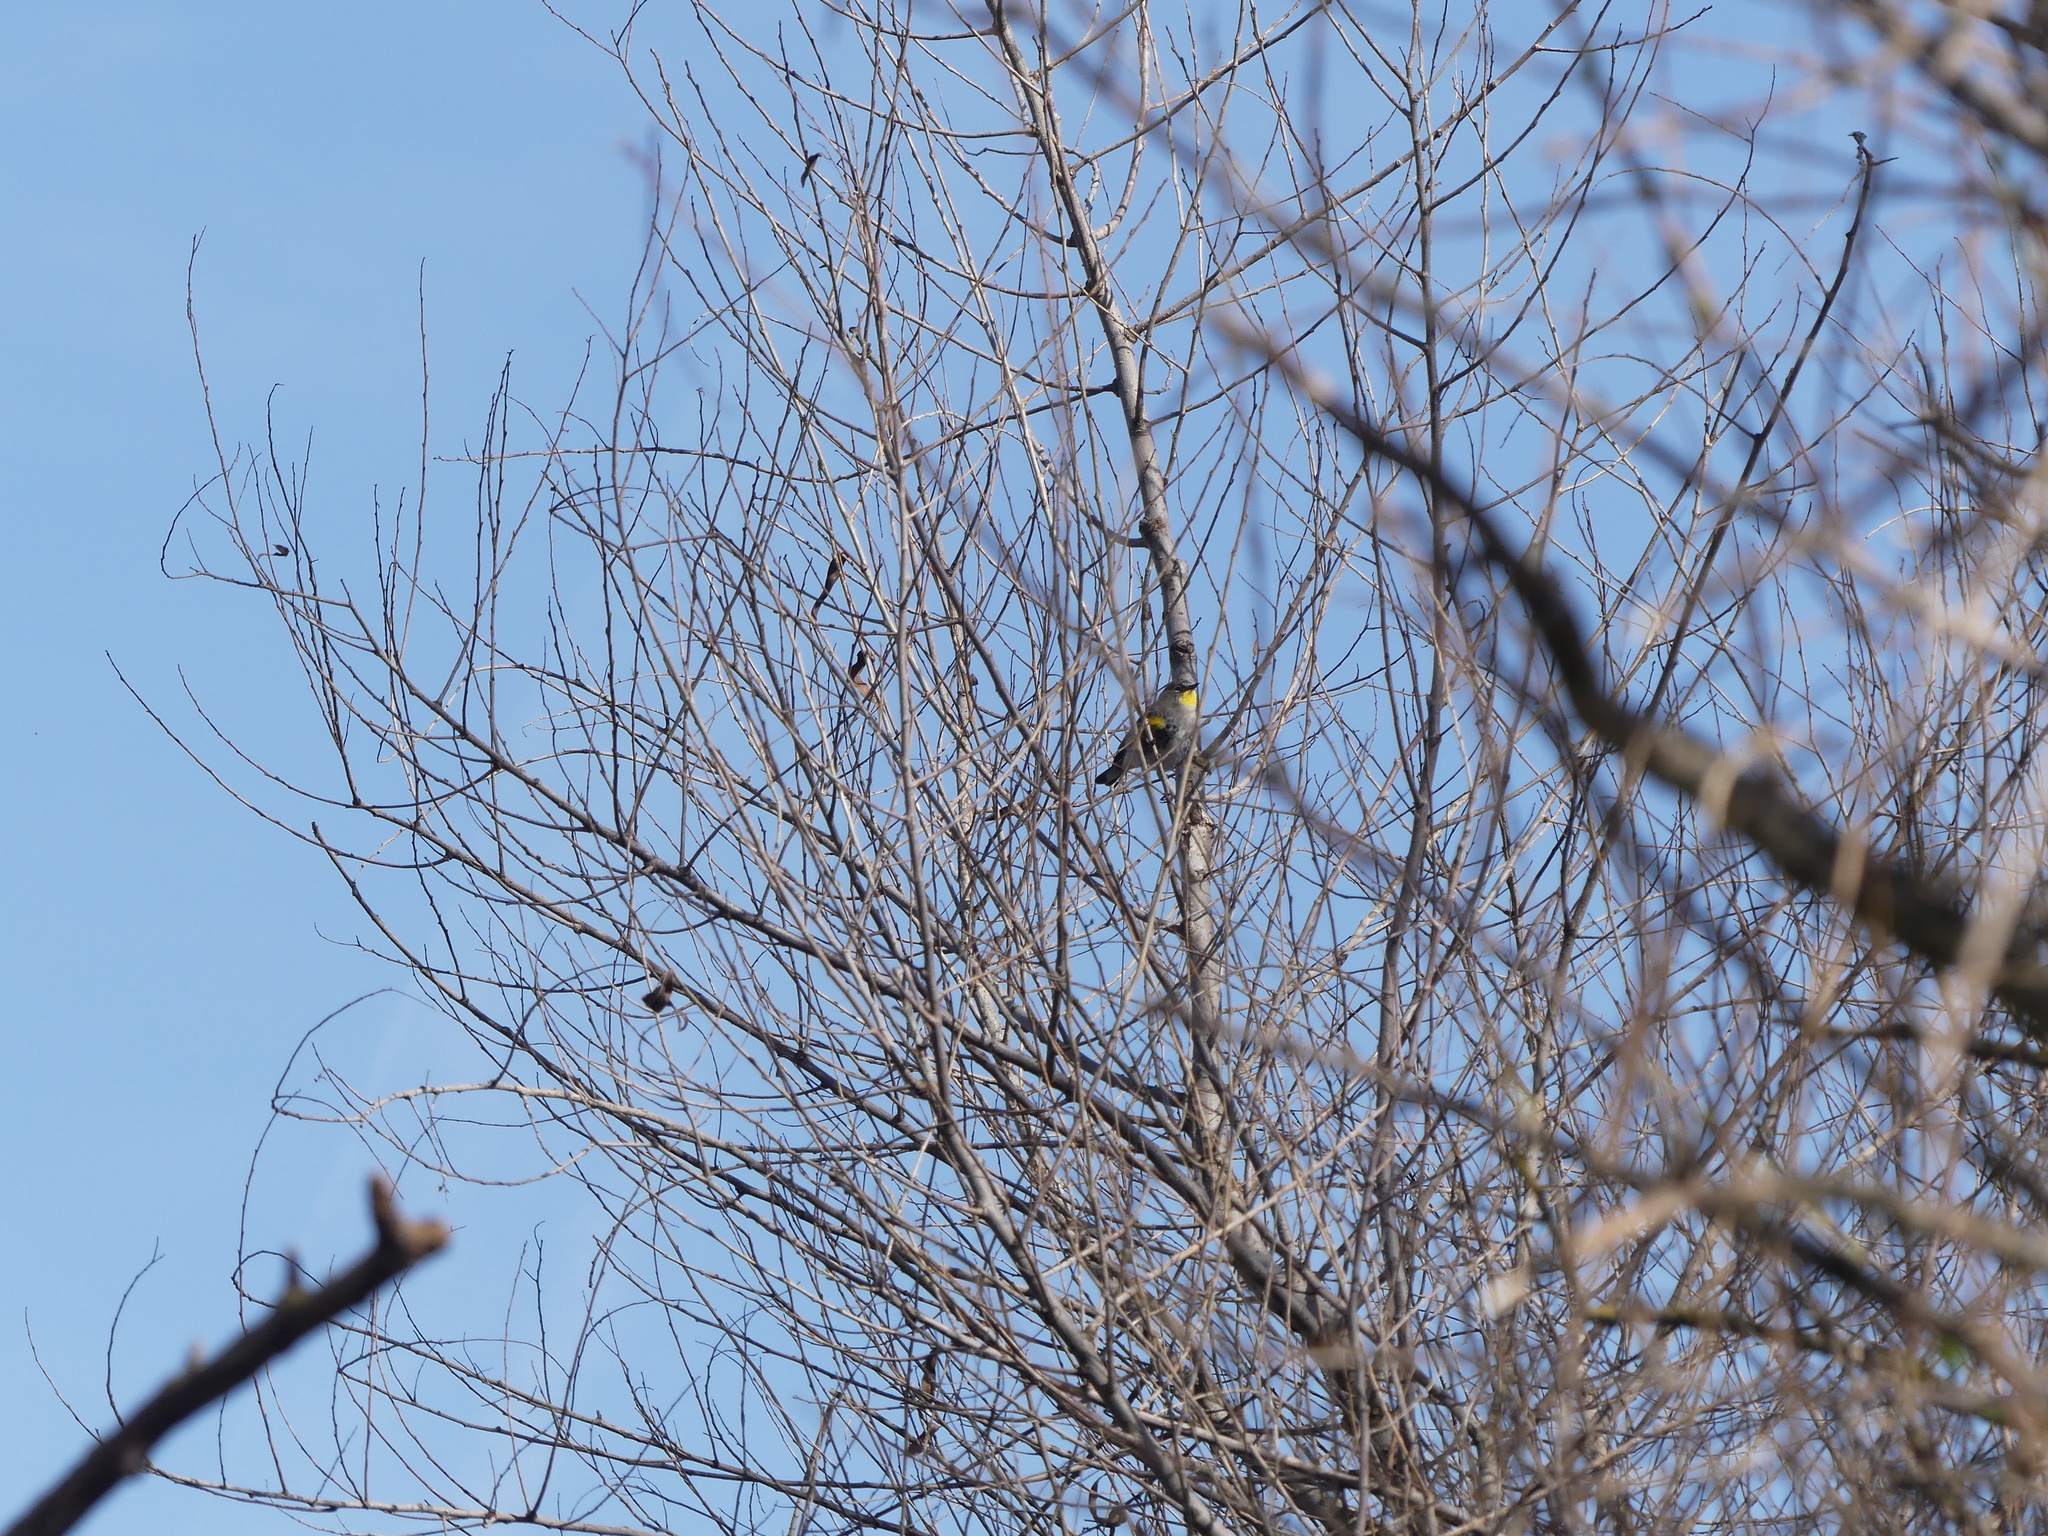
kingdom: Animalia
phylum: Chordata
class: Aves
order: Passeriformes
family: Parulidae
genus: Setophaga
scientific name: Setophaga auduboni
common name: Audubon's warbler
